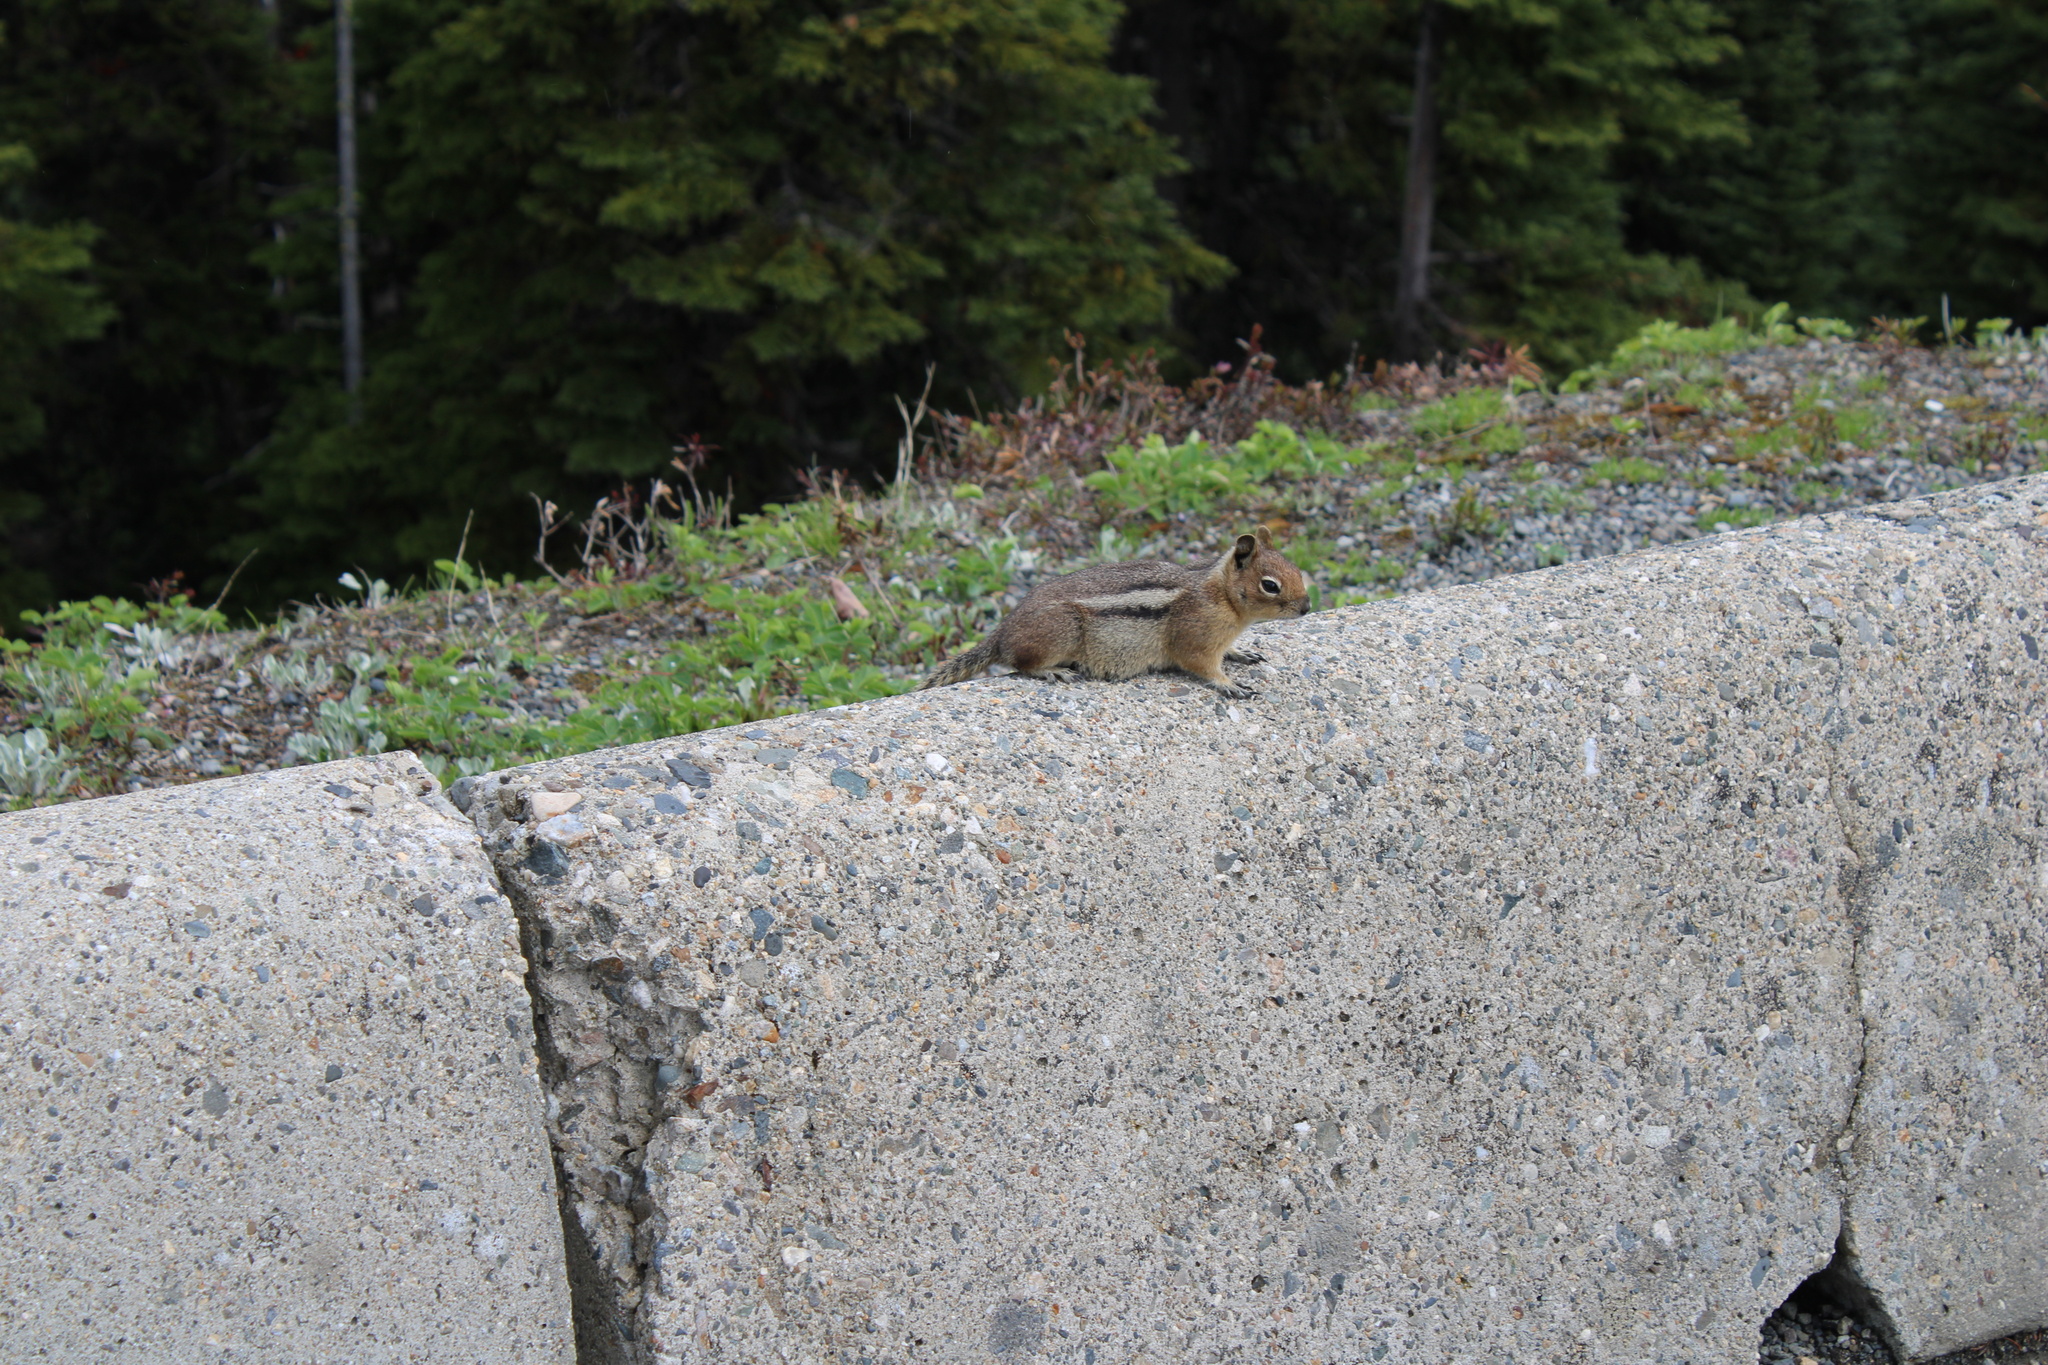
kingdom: Animalia
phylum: Chordata
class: Mammalia
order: Rodentia
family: Sciuridae
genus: Callospermophilus
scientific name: Callospermophilus saturatus
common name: Cascade golden-mantled ground squirrel
